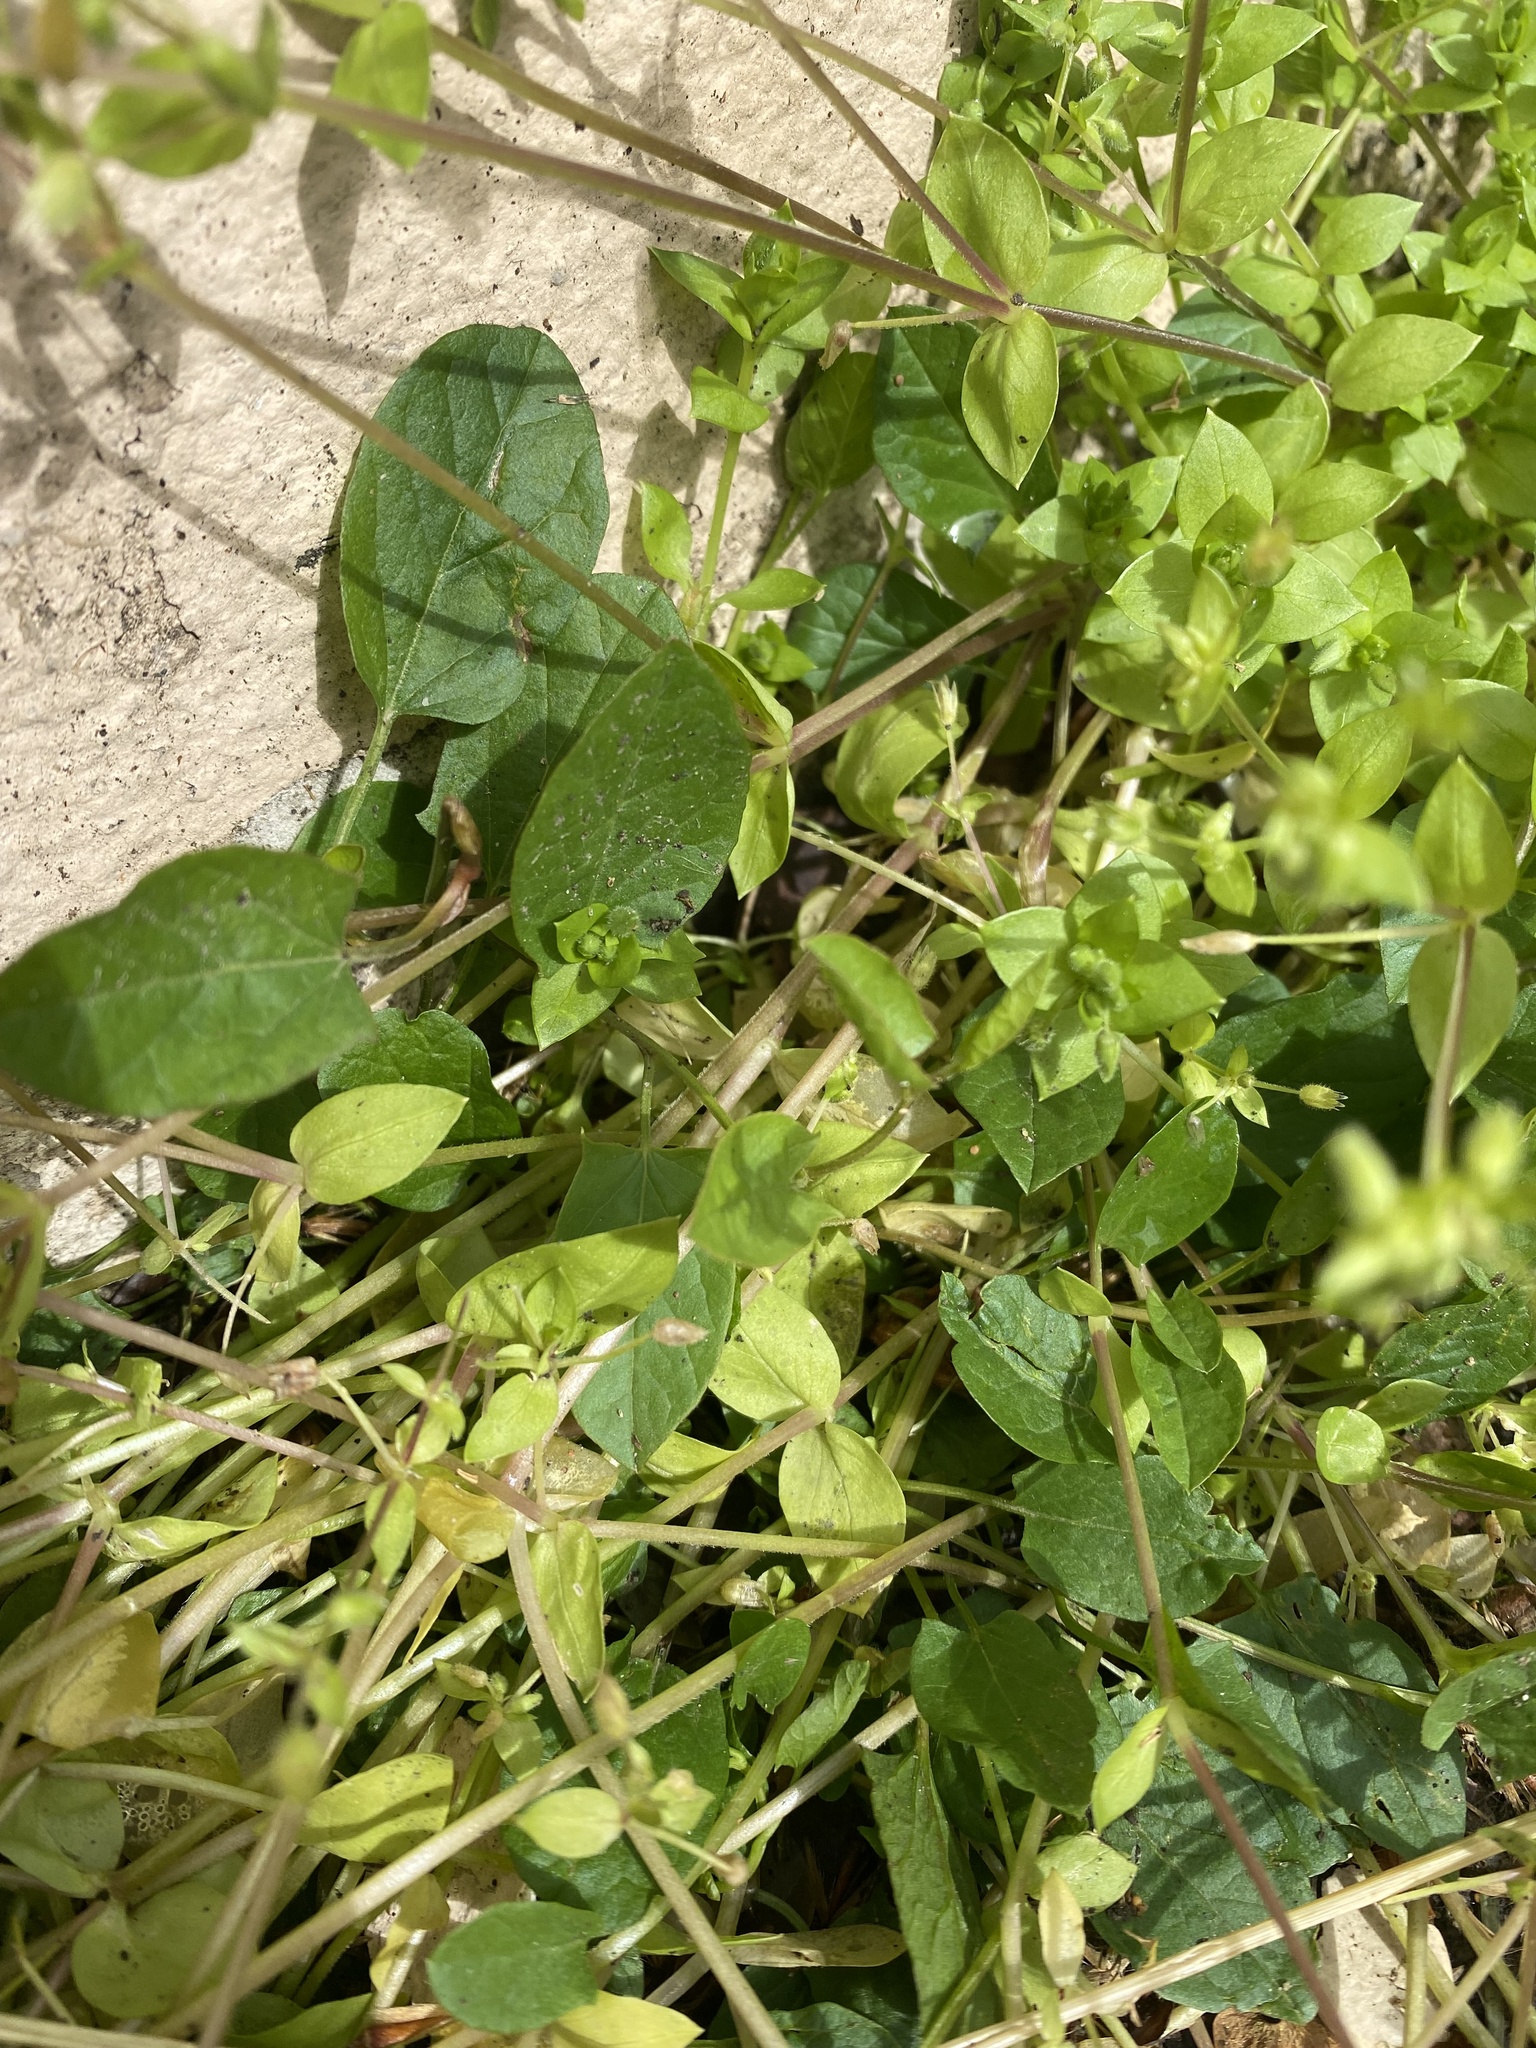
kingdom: Plantae
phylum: Tracheophyta
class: Magnoliopsida
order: Solanales
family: Convolvulaceae
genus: Convolvulus
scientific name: Convolvulus arvensis
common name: Field bindweed
